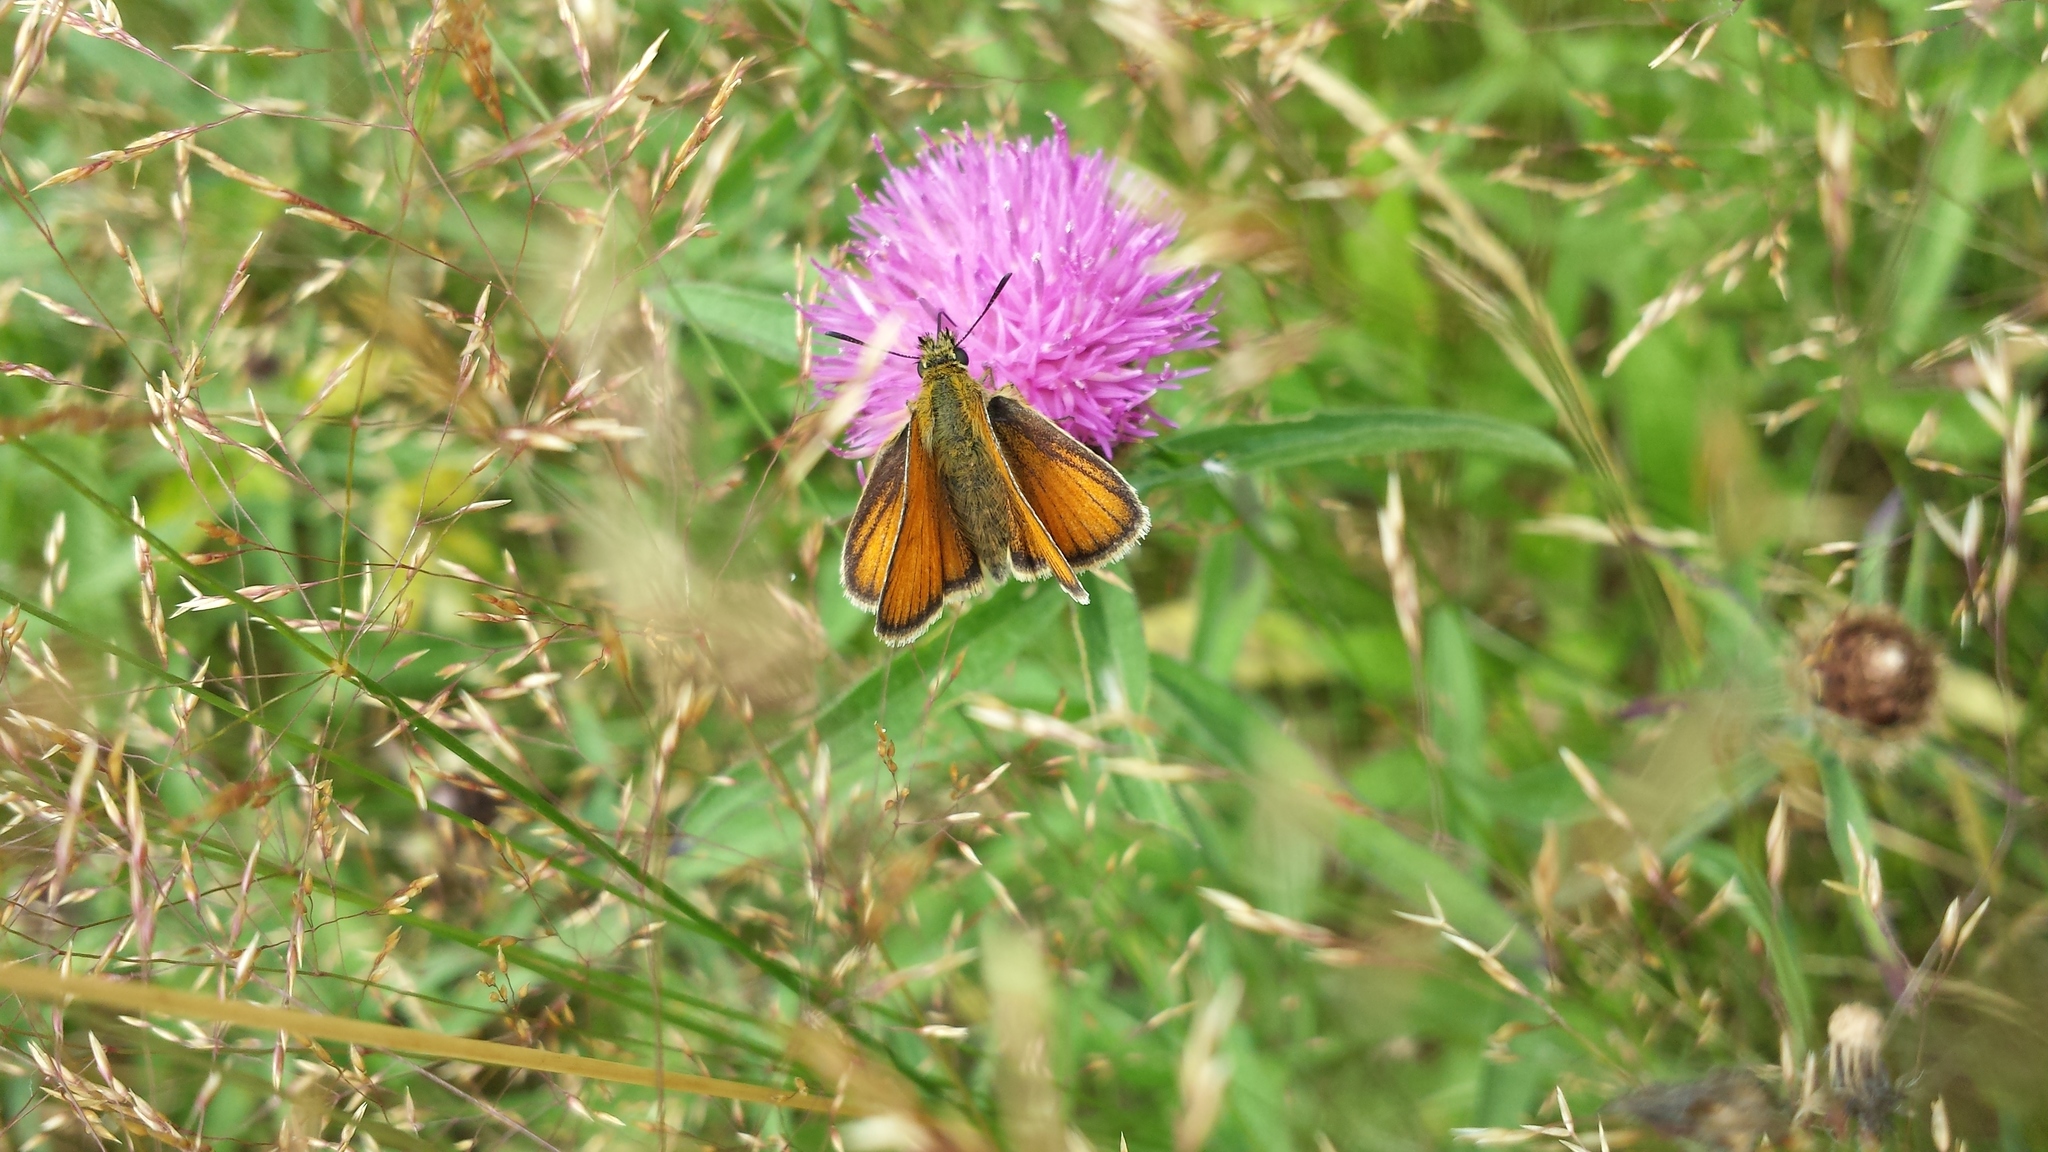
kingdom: Animalia
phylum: Arthropoda
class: Insecta
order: Lepidoptera
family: Hesperiidae
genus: Thymelicus
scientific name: Thymelicus lineola
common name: Essex skipper
